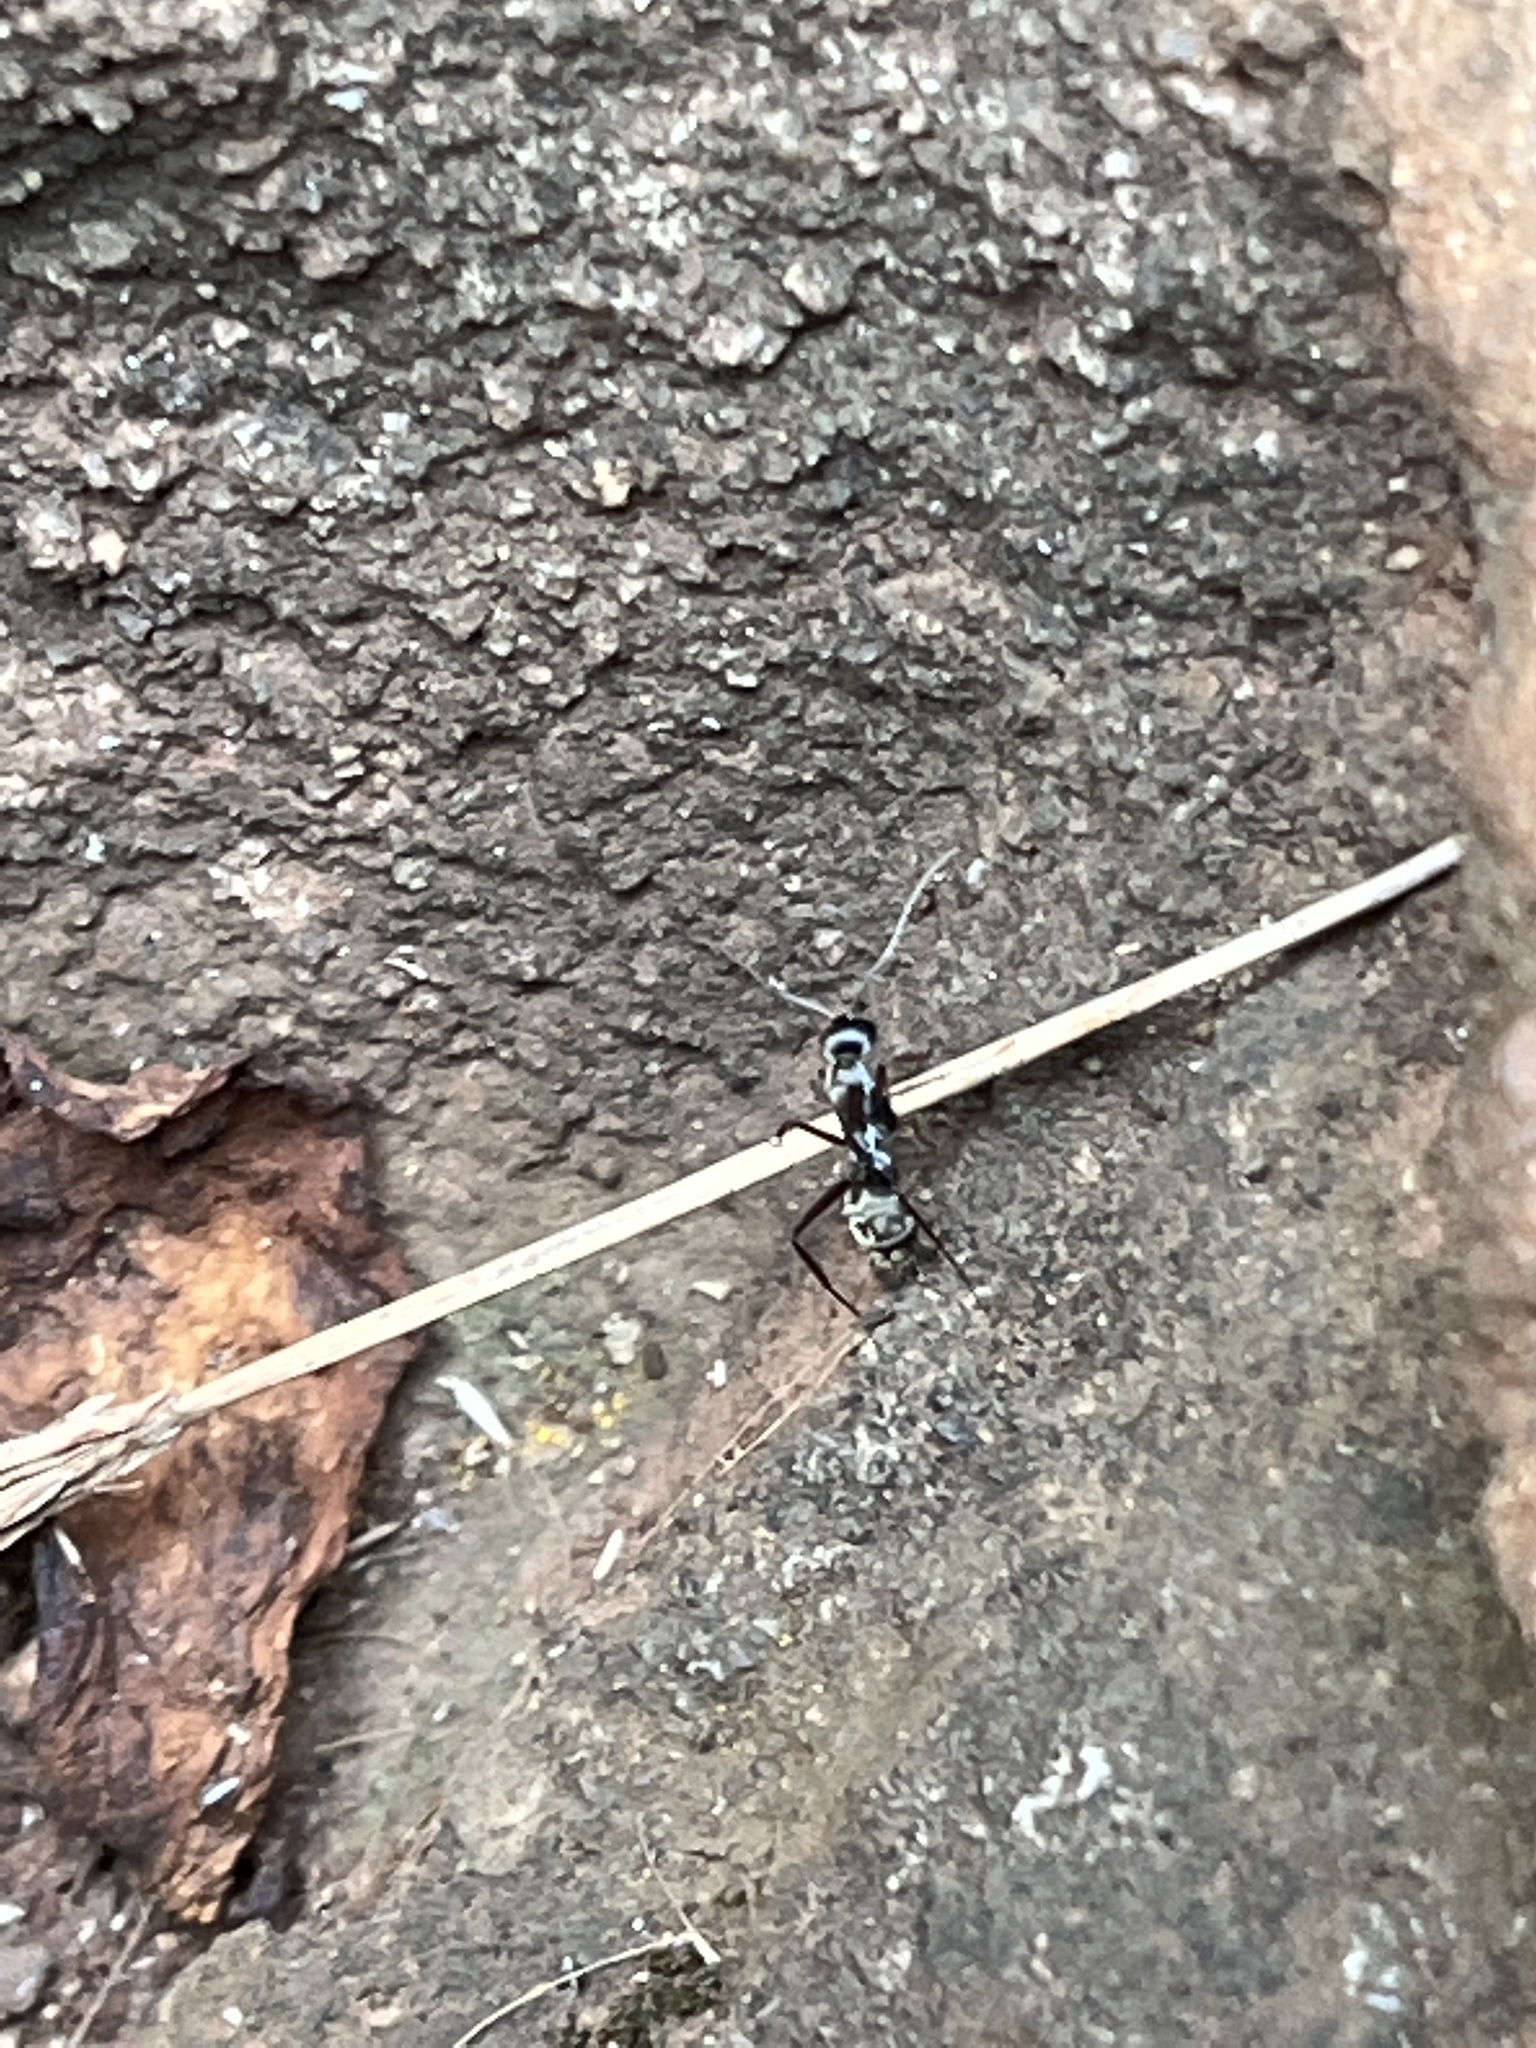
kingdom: Animalia
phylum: Arthropoda
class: Insecta
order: Hymenoptera
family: Formicidae
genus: Camponotus
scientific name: Camponotus cinctellus
